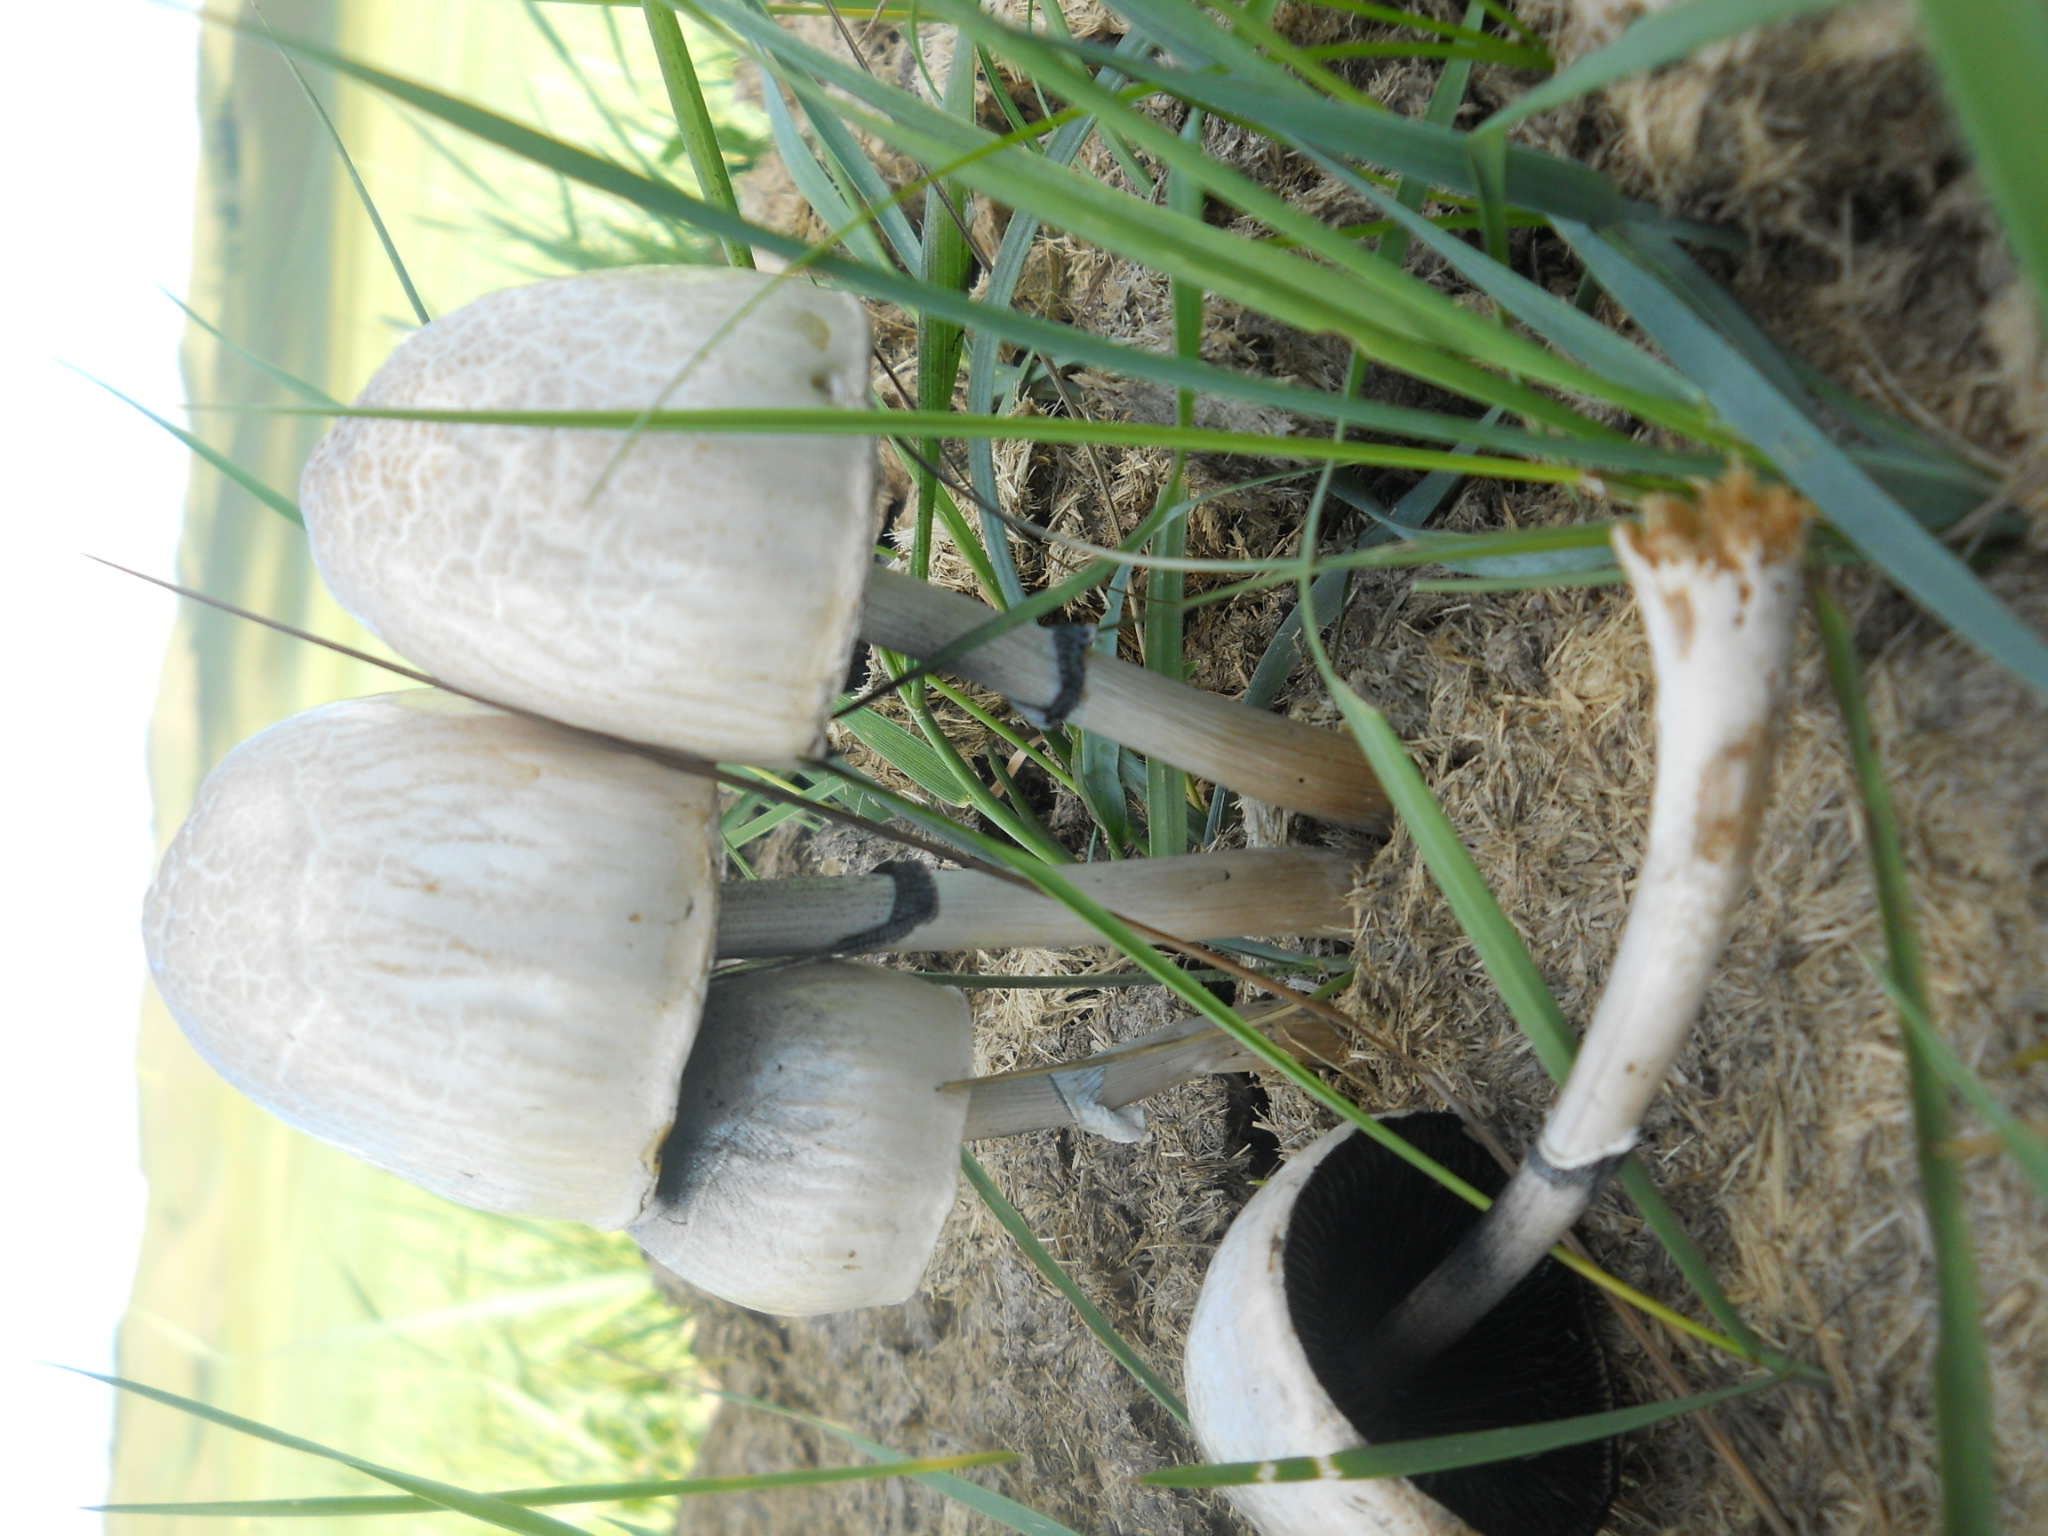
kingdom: Fungi
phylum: Basidiomycota
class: Agaricomycetes
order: Agaricales
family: Bolbitiaceae
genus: Panaeolus
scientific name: Panaeolus semiovatus
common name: Shiny mottlegill
